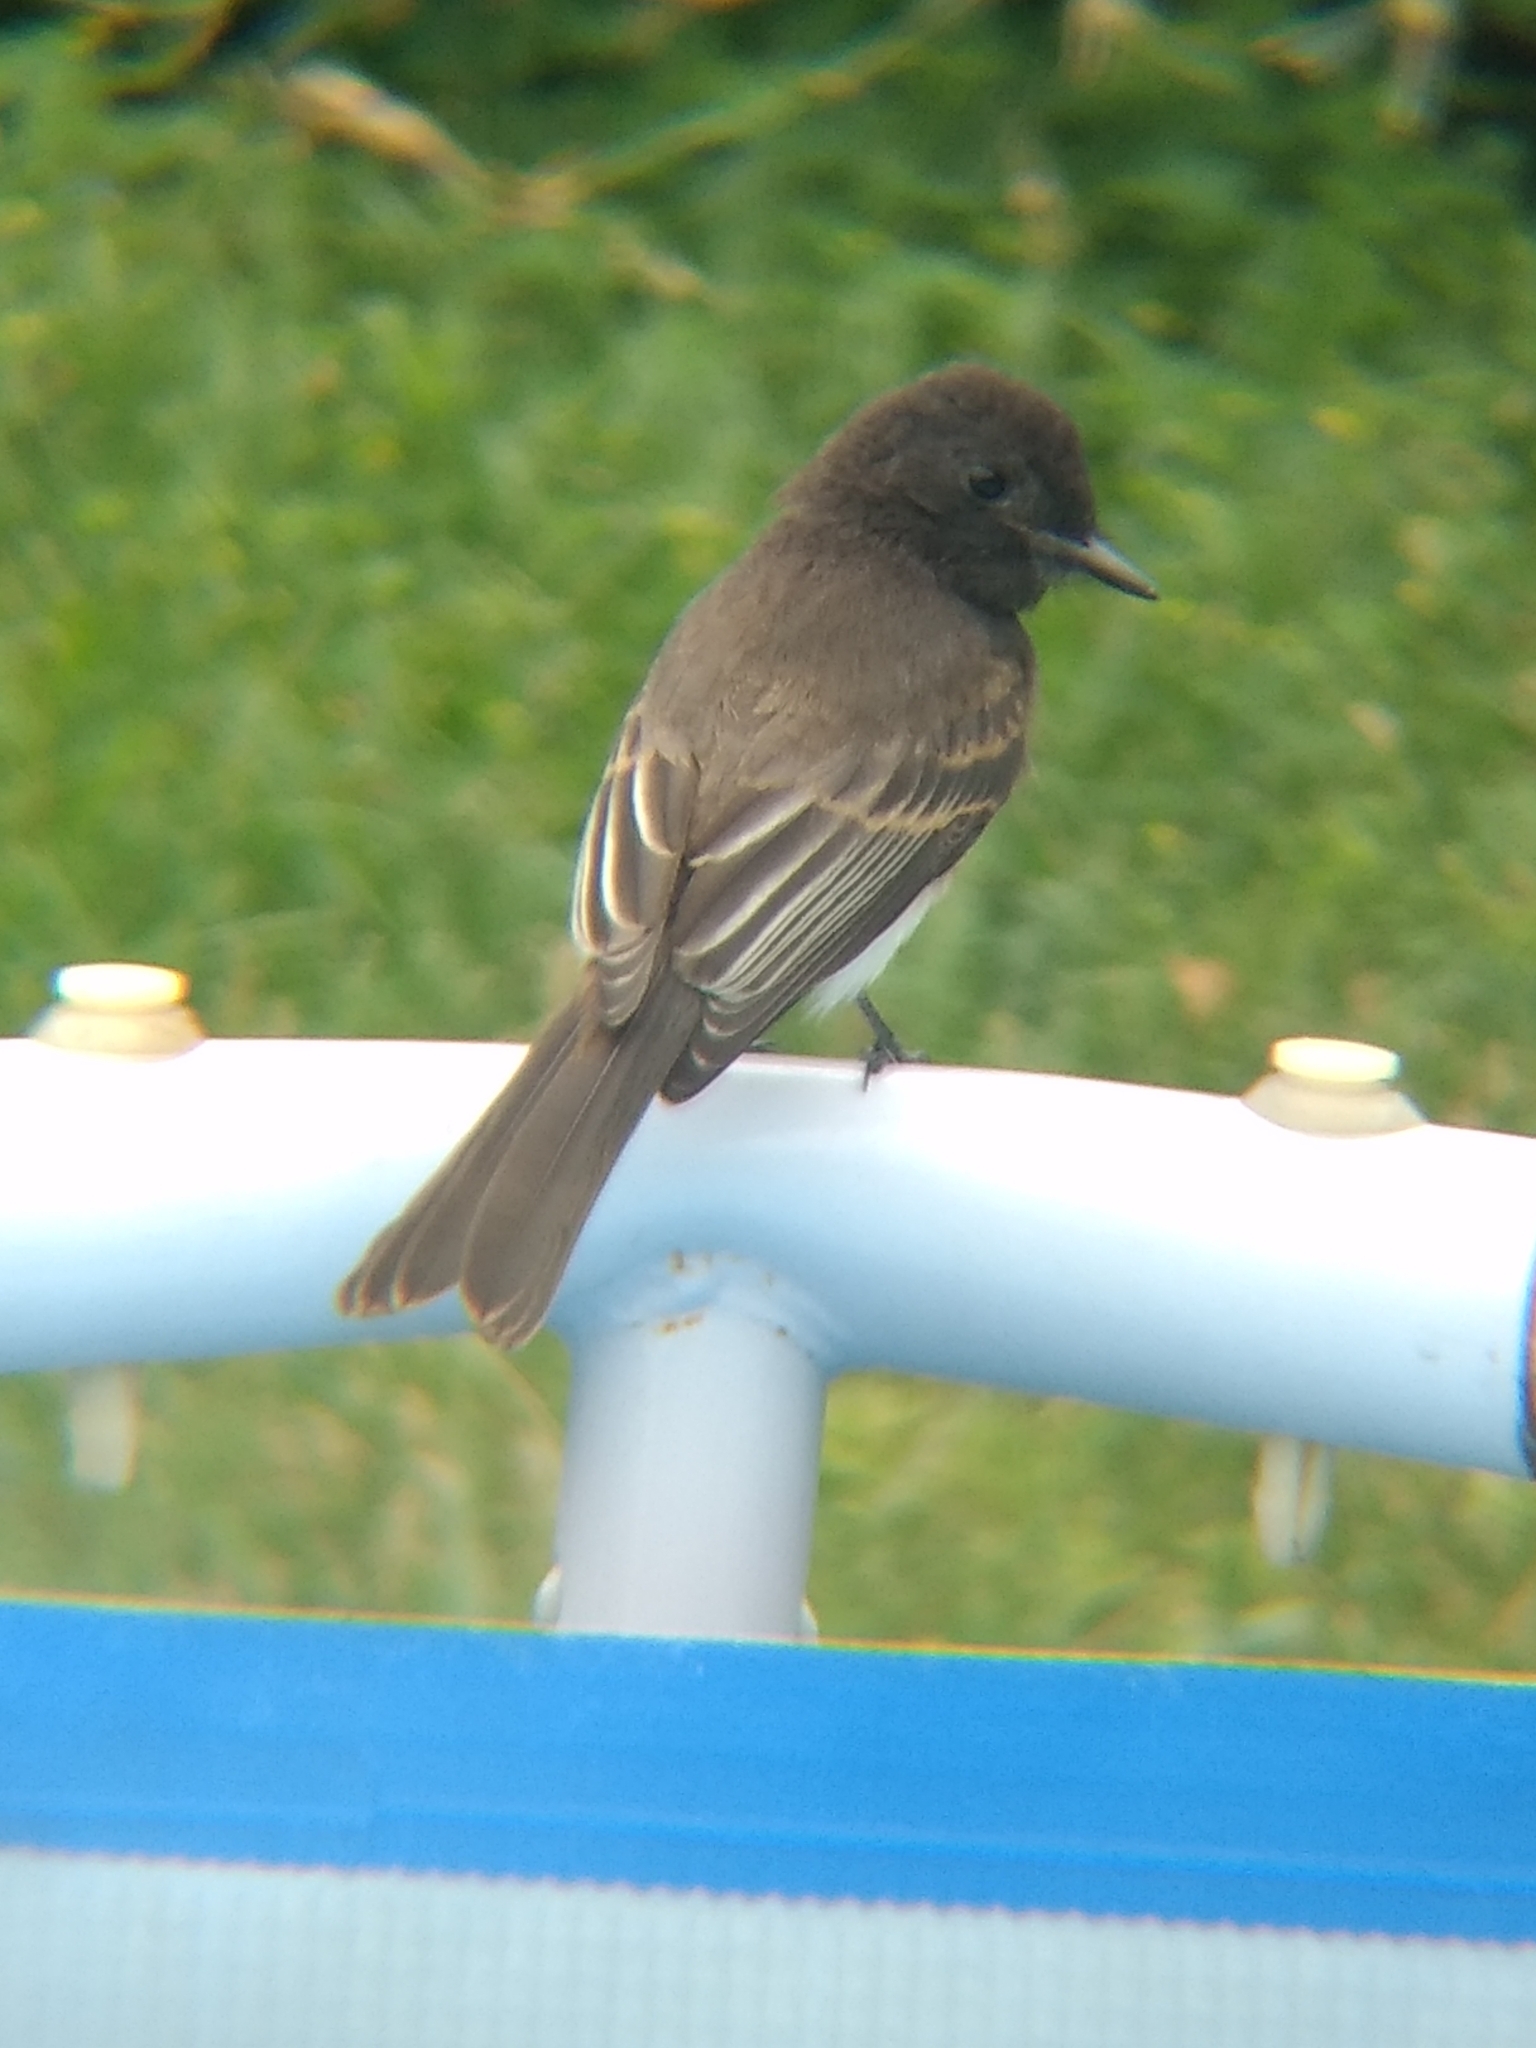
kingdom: Animalia
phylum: Chordata
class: Aves
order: Passeriformes
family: Tyrannidae
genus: Sayornis
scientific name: Sayornis nigricans
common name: Black phoebe
